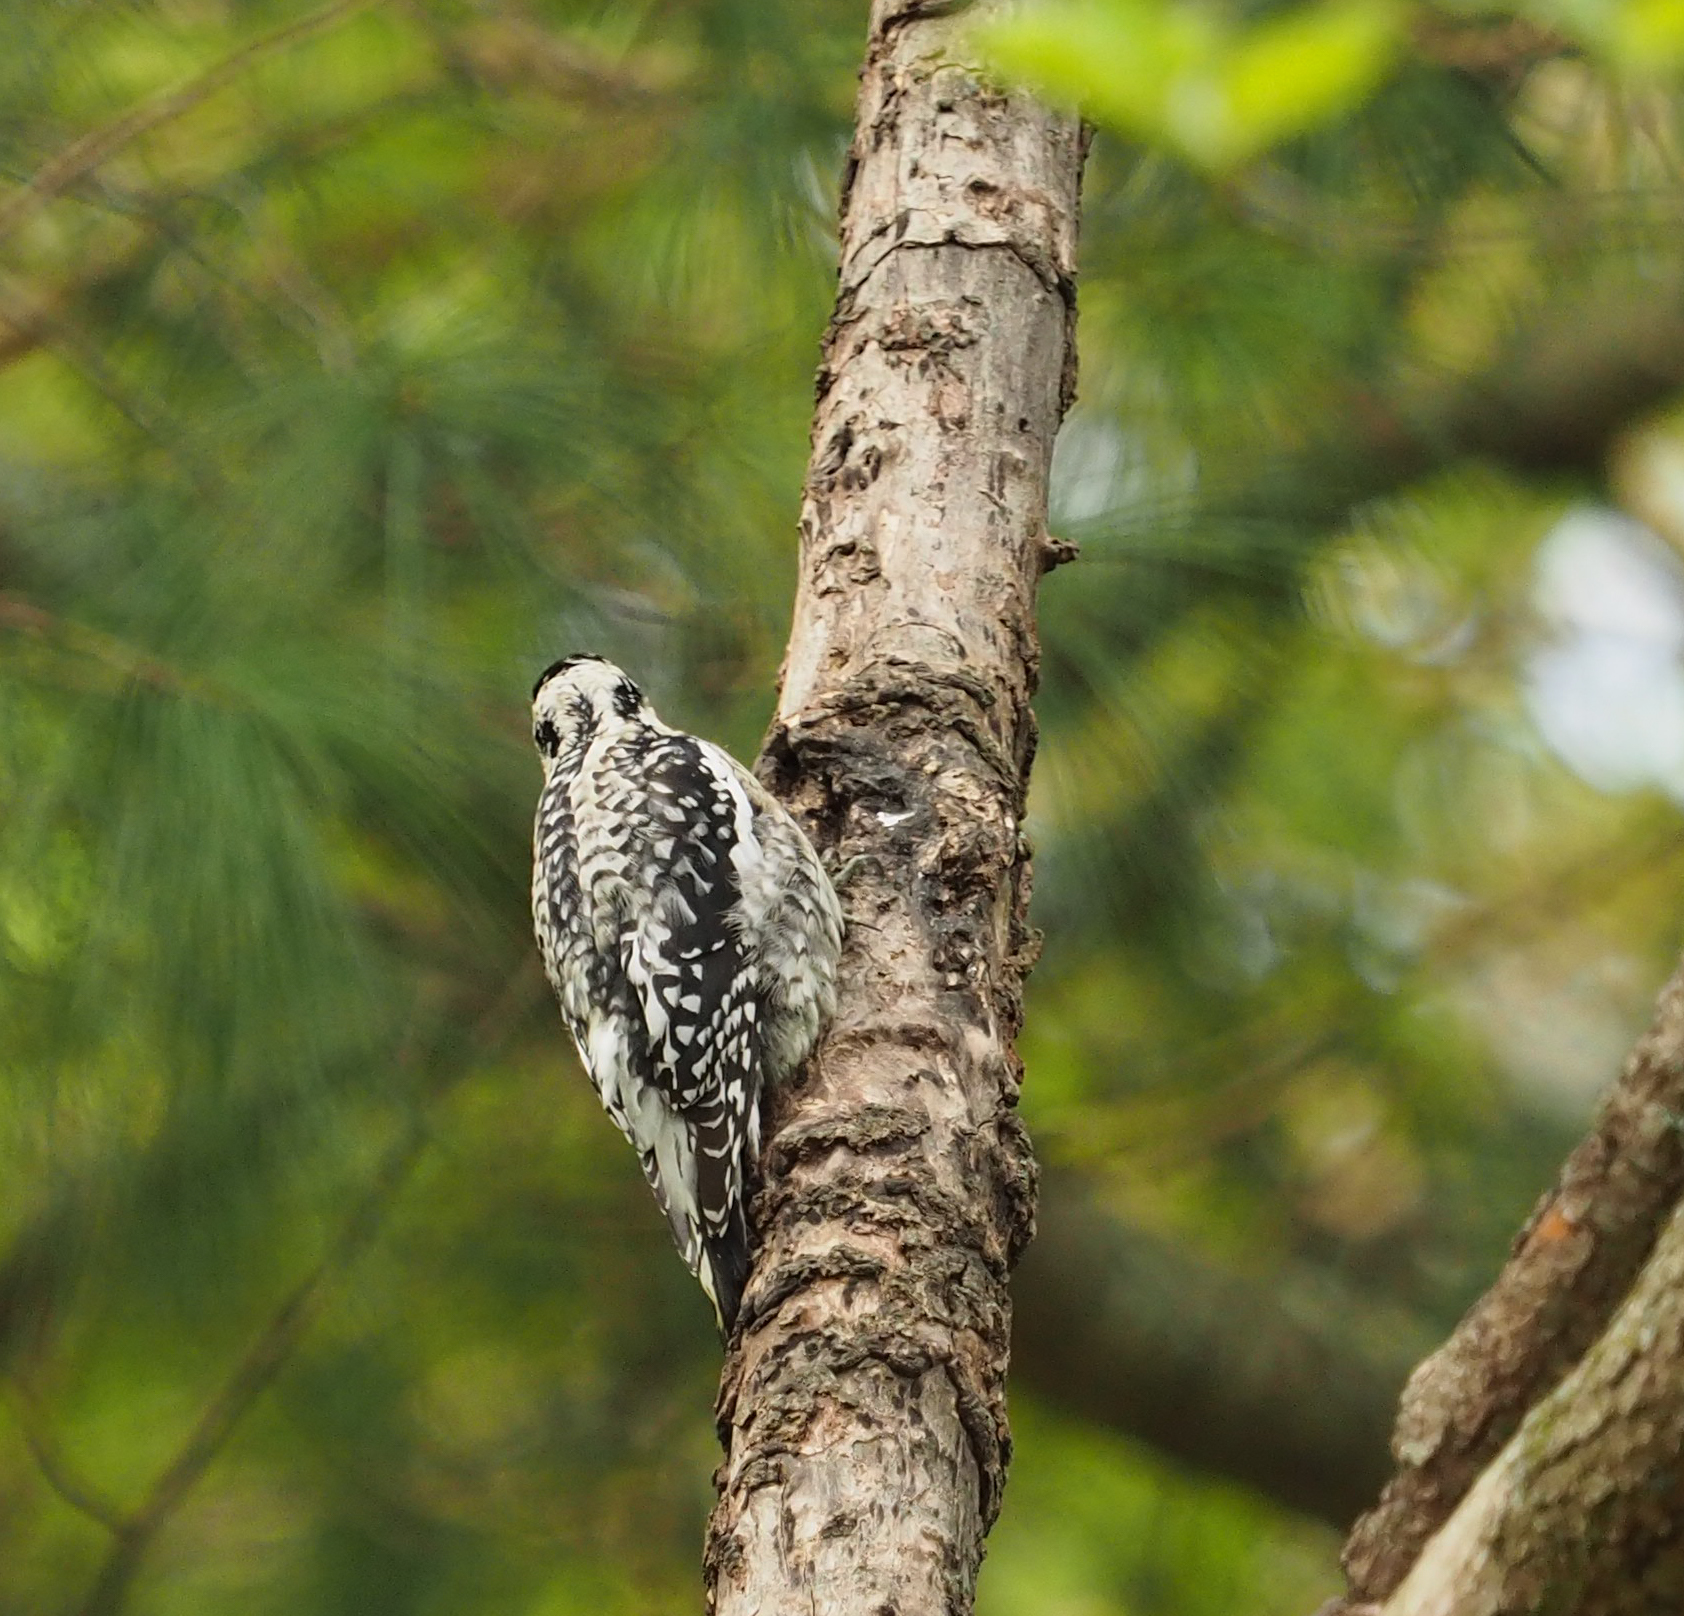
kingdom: Animalia
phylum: Chordata
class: Aves
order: Piciformes
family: Picidae
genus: Sphyrapicus
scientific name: Sphyrapicus varius
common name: Yellow-bellied sapsucker
